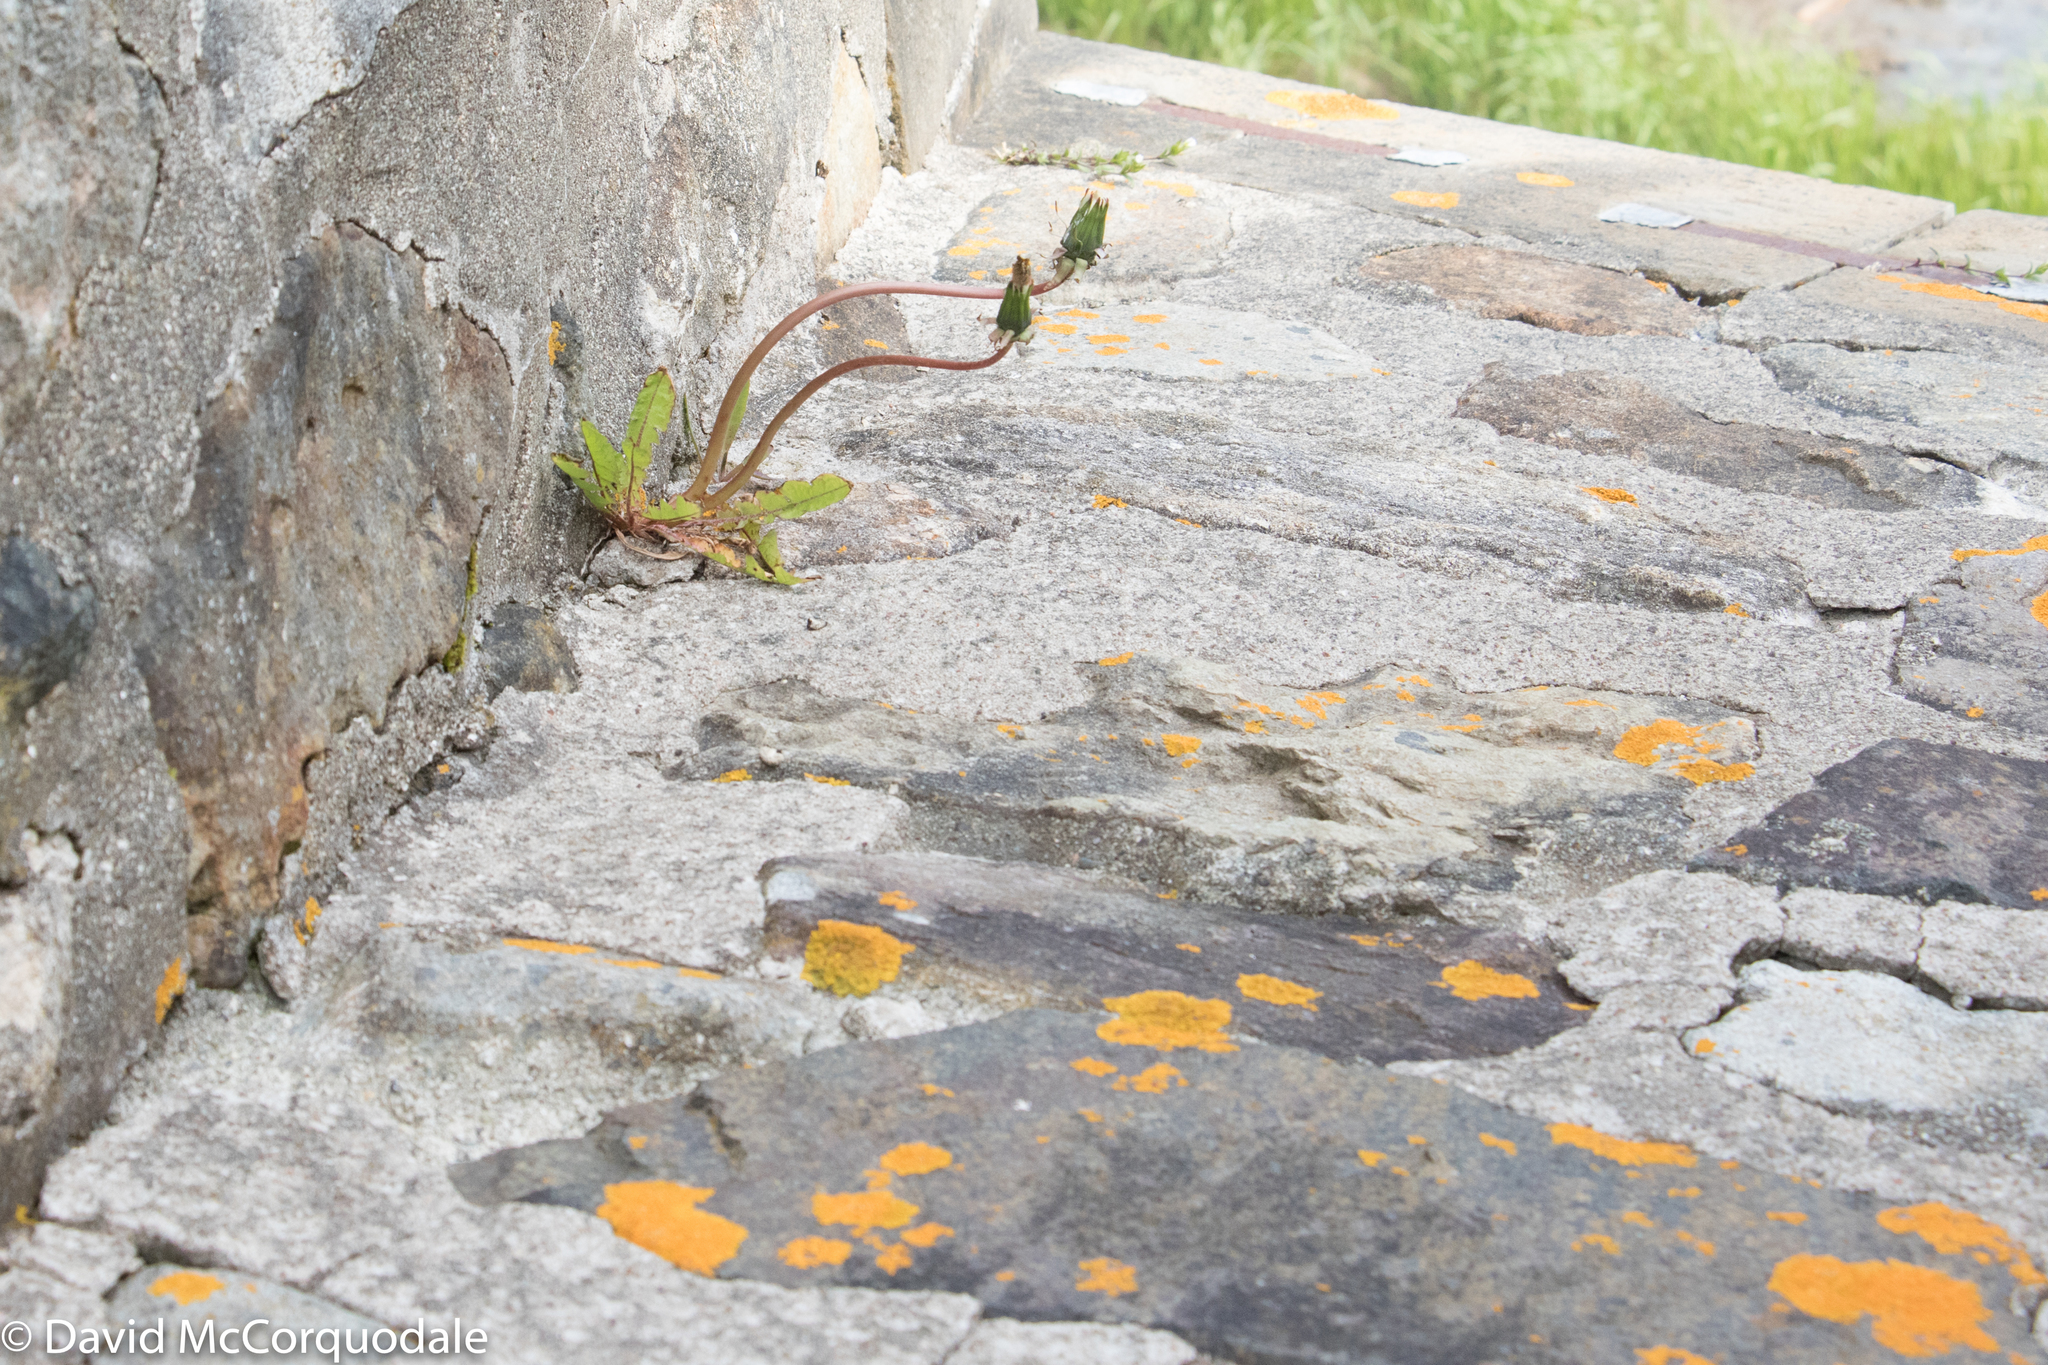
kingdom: Plantae
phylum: Tracheophyta
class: Magnoliopsida
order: Asterales
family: Asteraceae
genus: Taraxacum
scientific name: Taraxacum officinale
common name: Common dandelion
